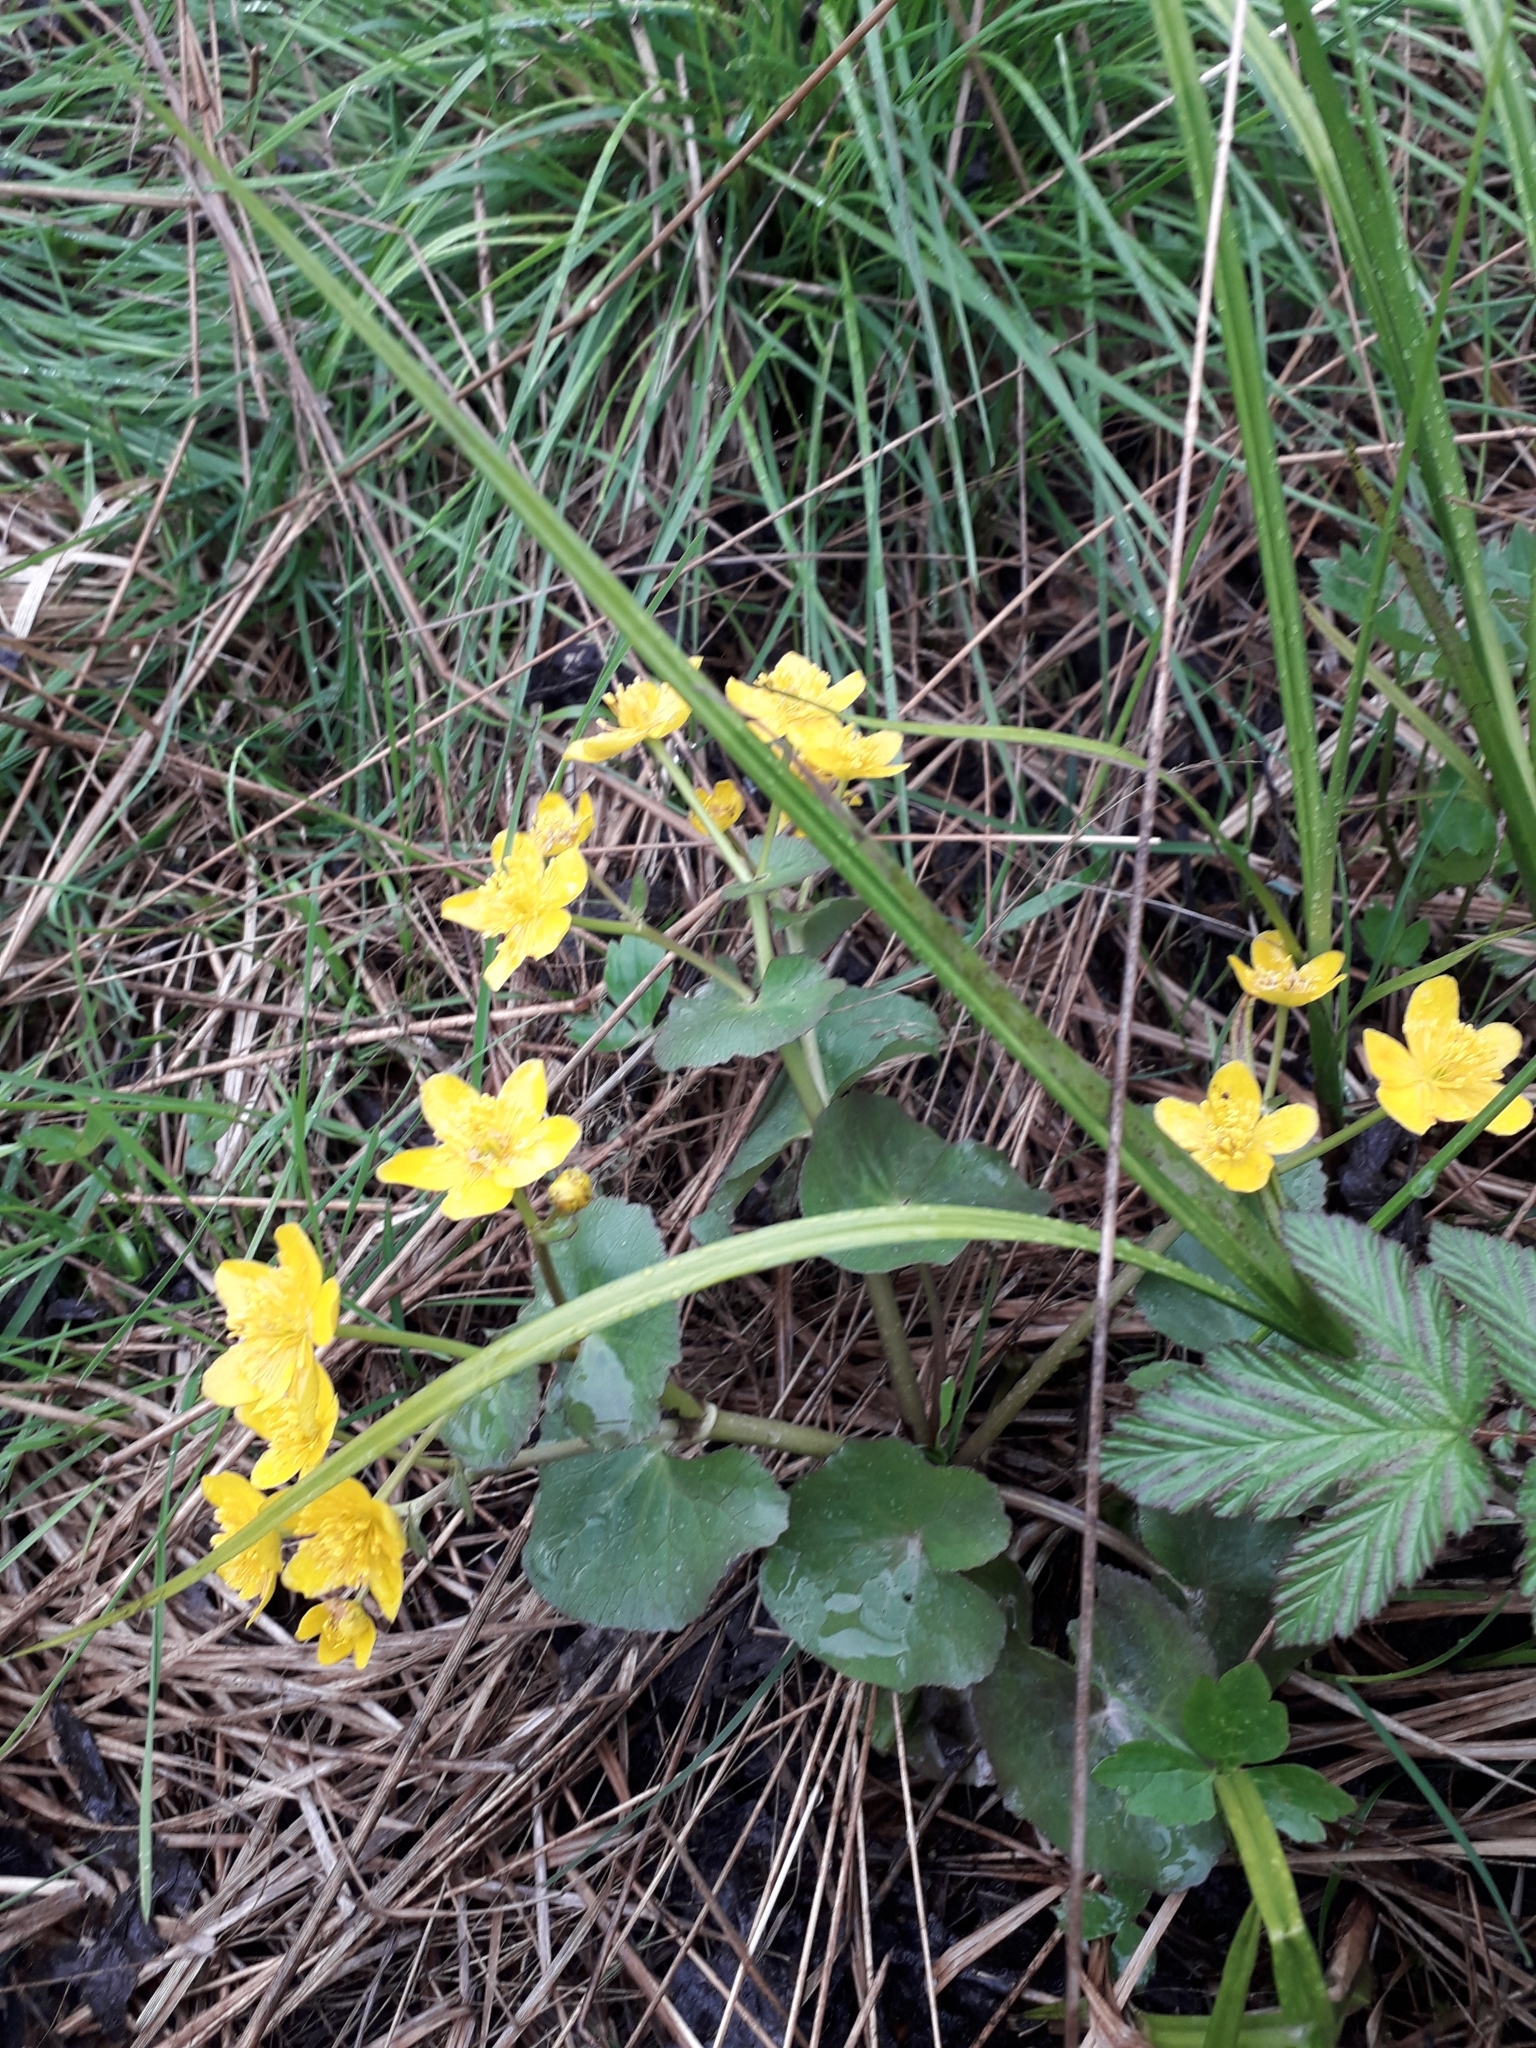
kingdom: Plantae
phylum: Tracheophyta
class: Magnoliopsida
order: Ranunculales
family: Ranunculaceae
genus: Caltha
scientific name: Caltha palustris
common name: Marsh marigold
